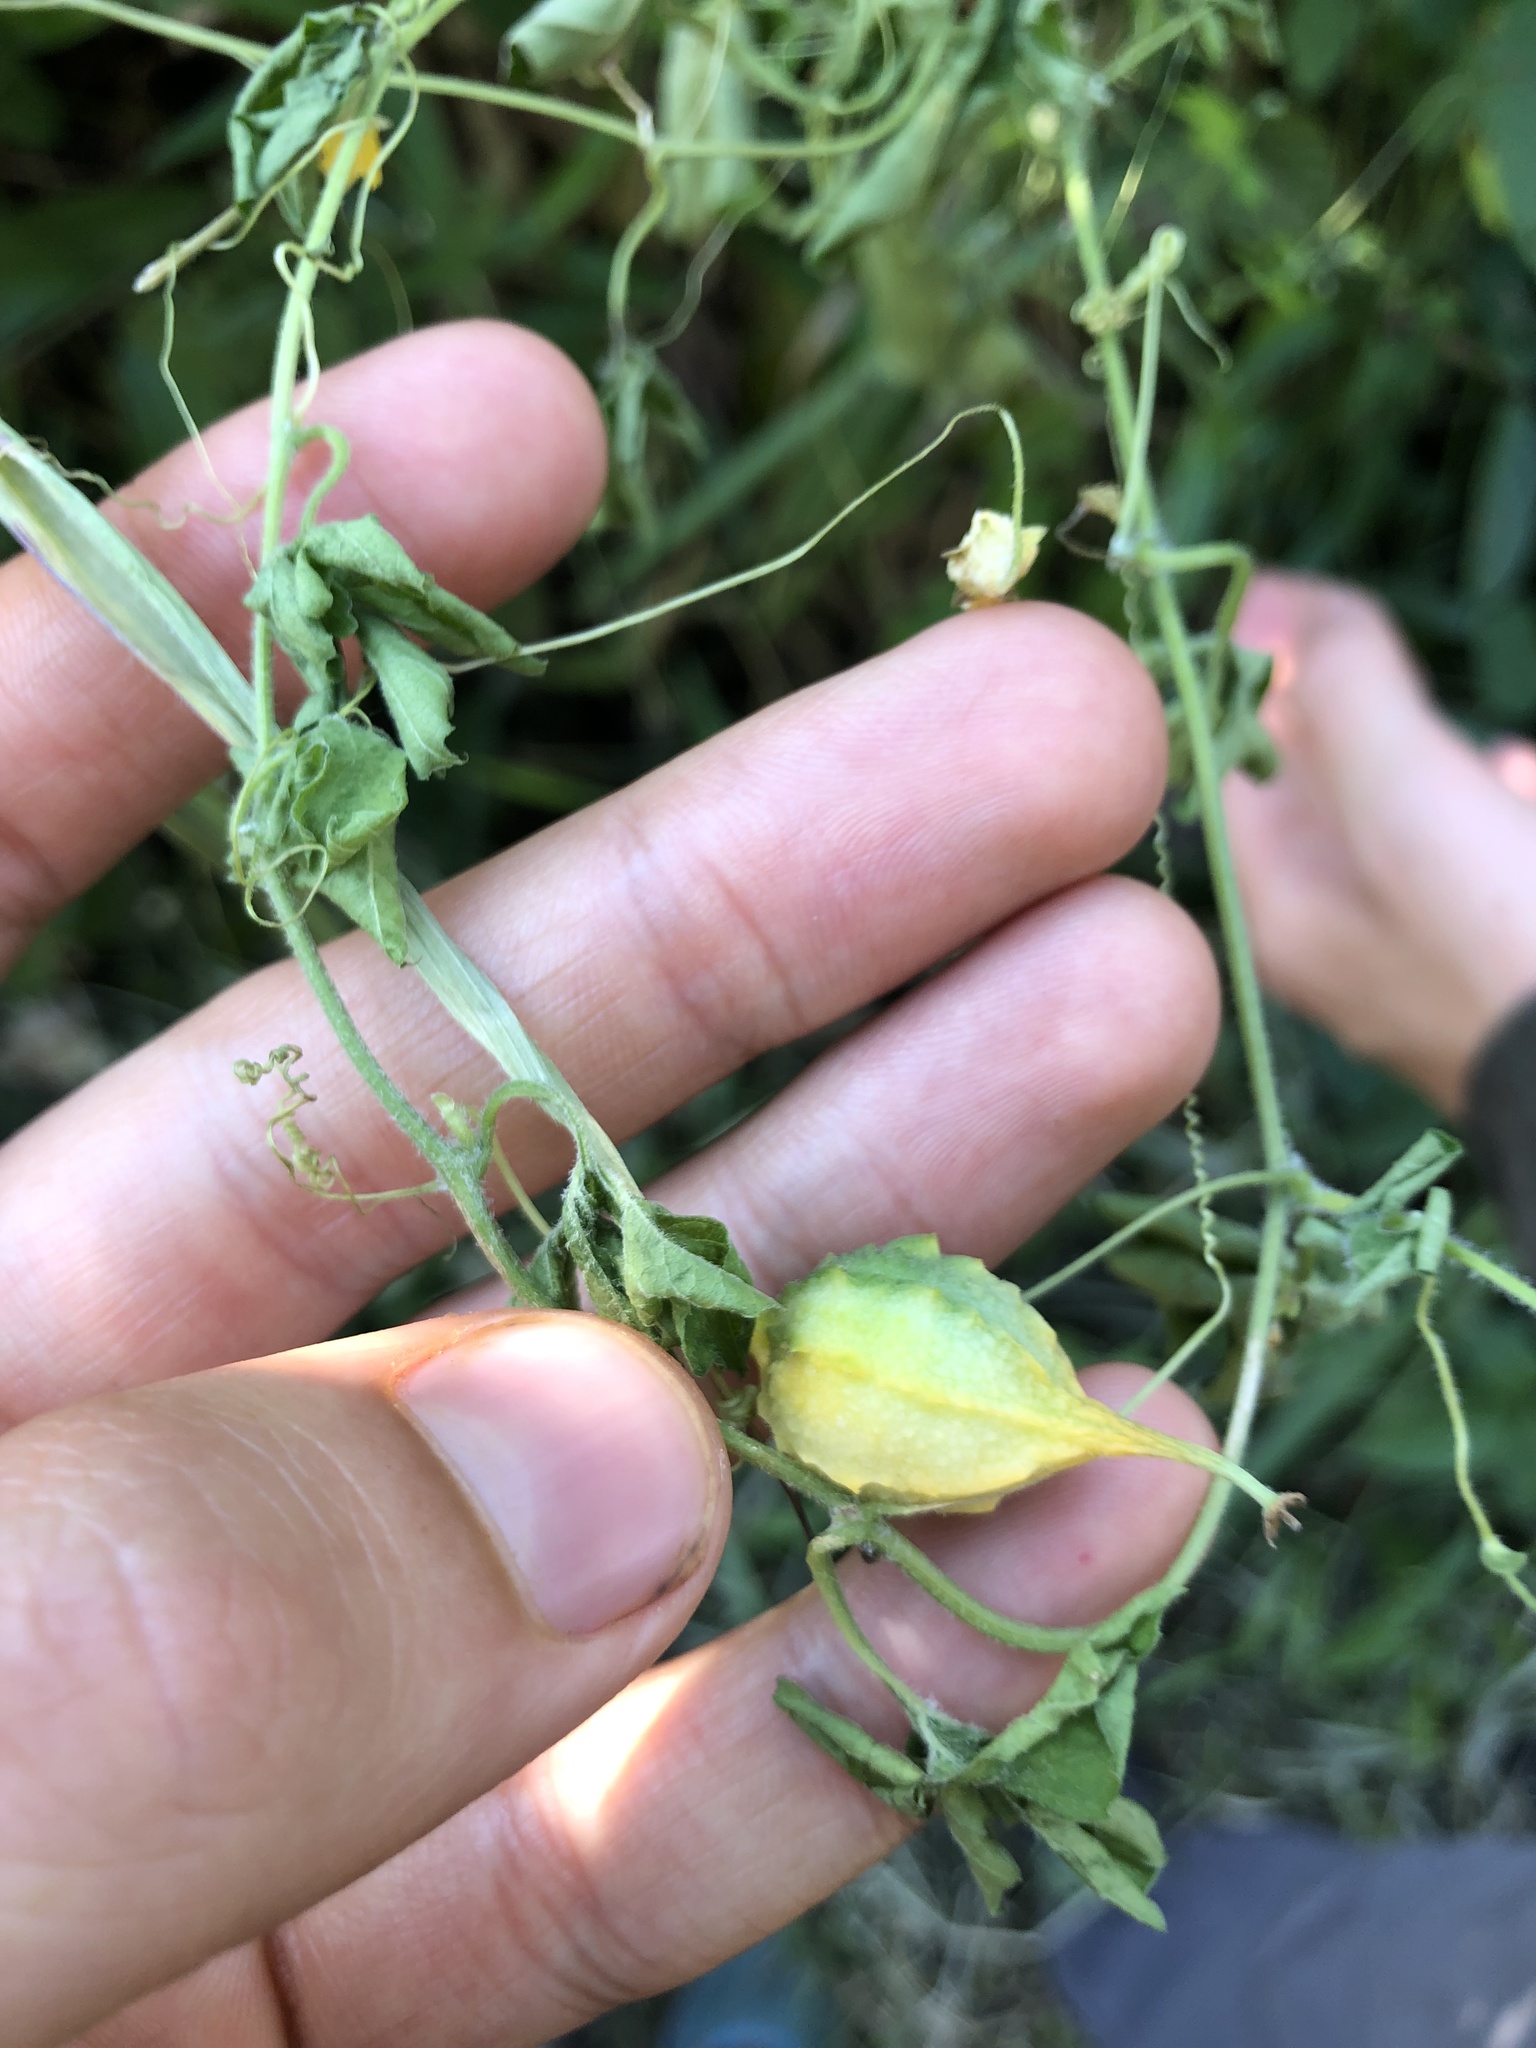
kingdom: Plantae
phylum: Tracheophyta
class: Magnoliopsida
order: Cucurbitales
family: Cucurbitaceae
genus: Momordica
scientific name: Momordica charantia
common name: Balsampear
